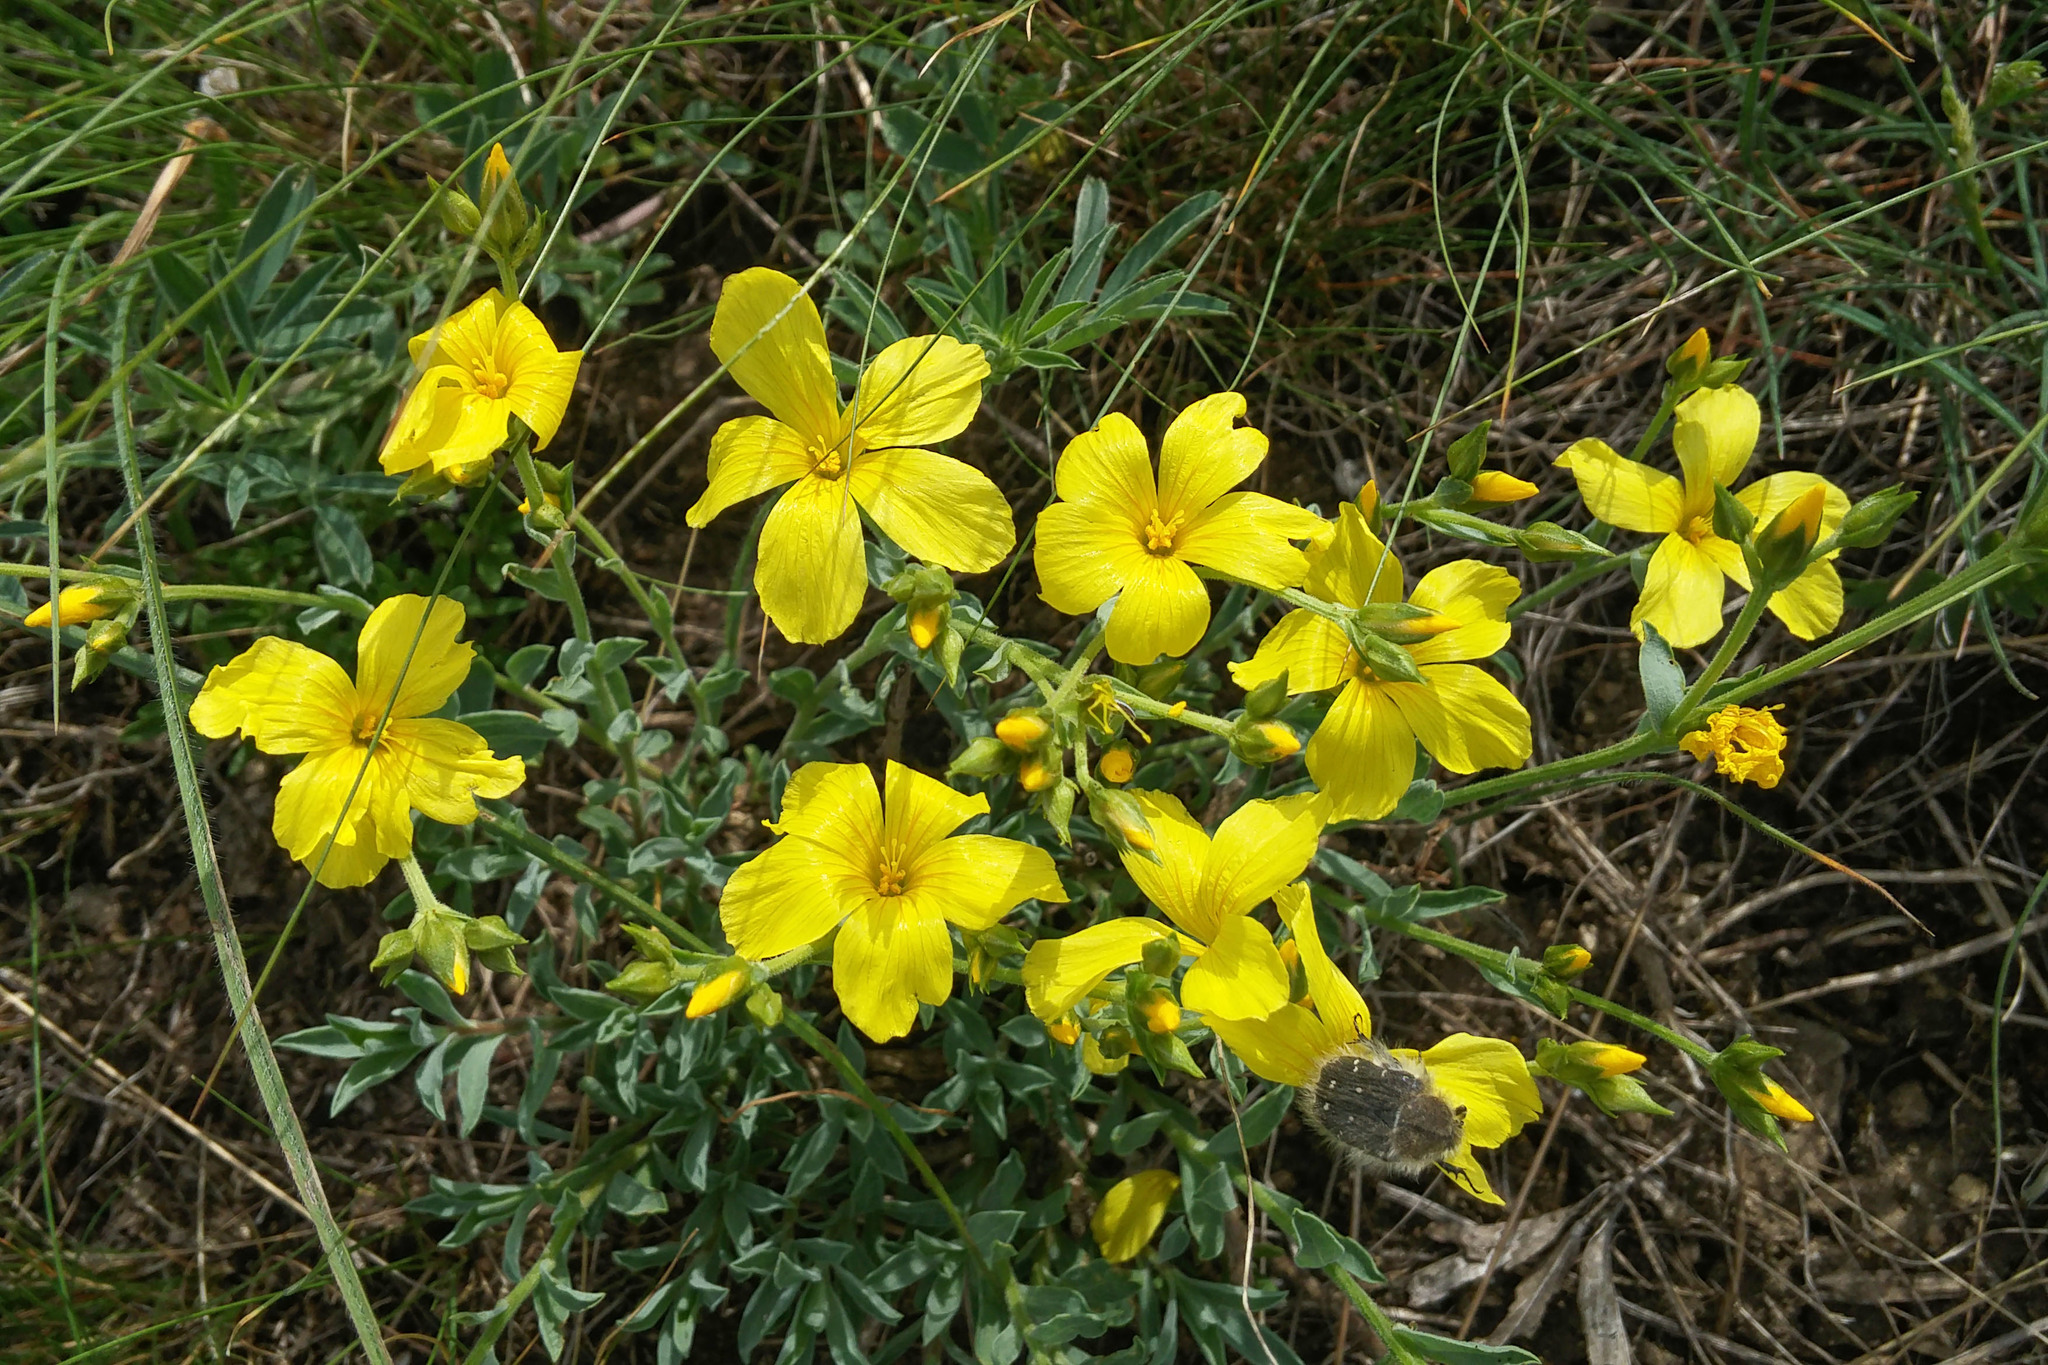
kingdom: Plantae
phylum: Tracheophyta
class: Magnoliopsida
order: Malpighiales
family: Linaceae
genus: Linum
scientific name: Linum pallasianum
